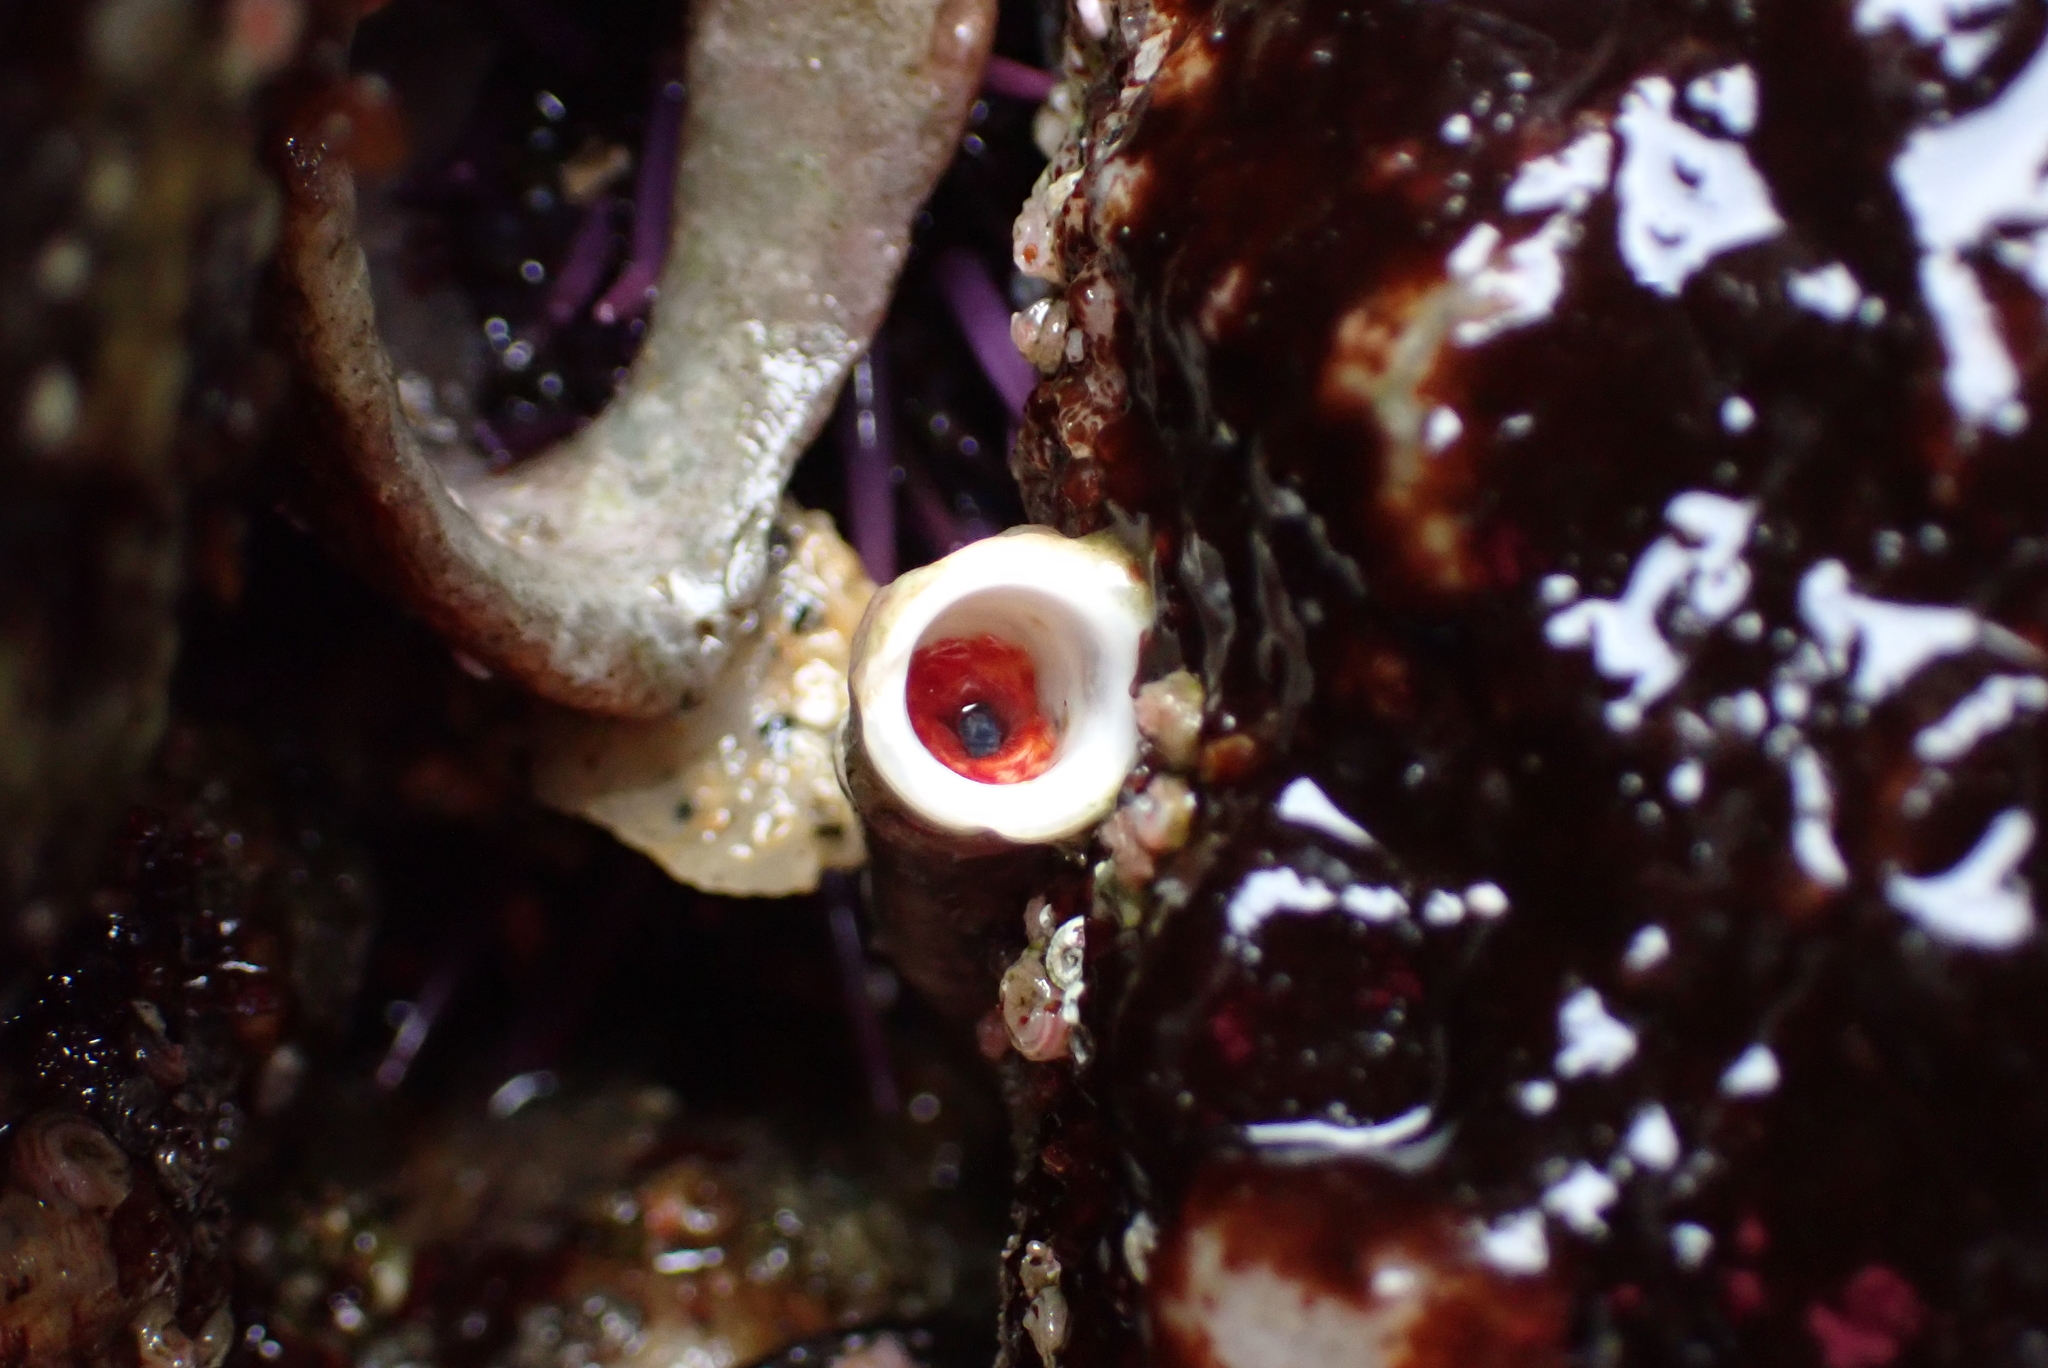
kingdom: Animalia
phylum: Annelida
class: Polychaeta
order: Sabellida
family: Serpulidae
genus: Serpula
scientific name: Serpula columbiana
